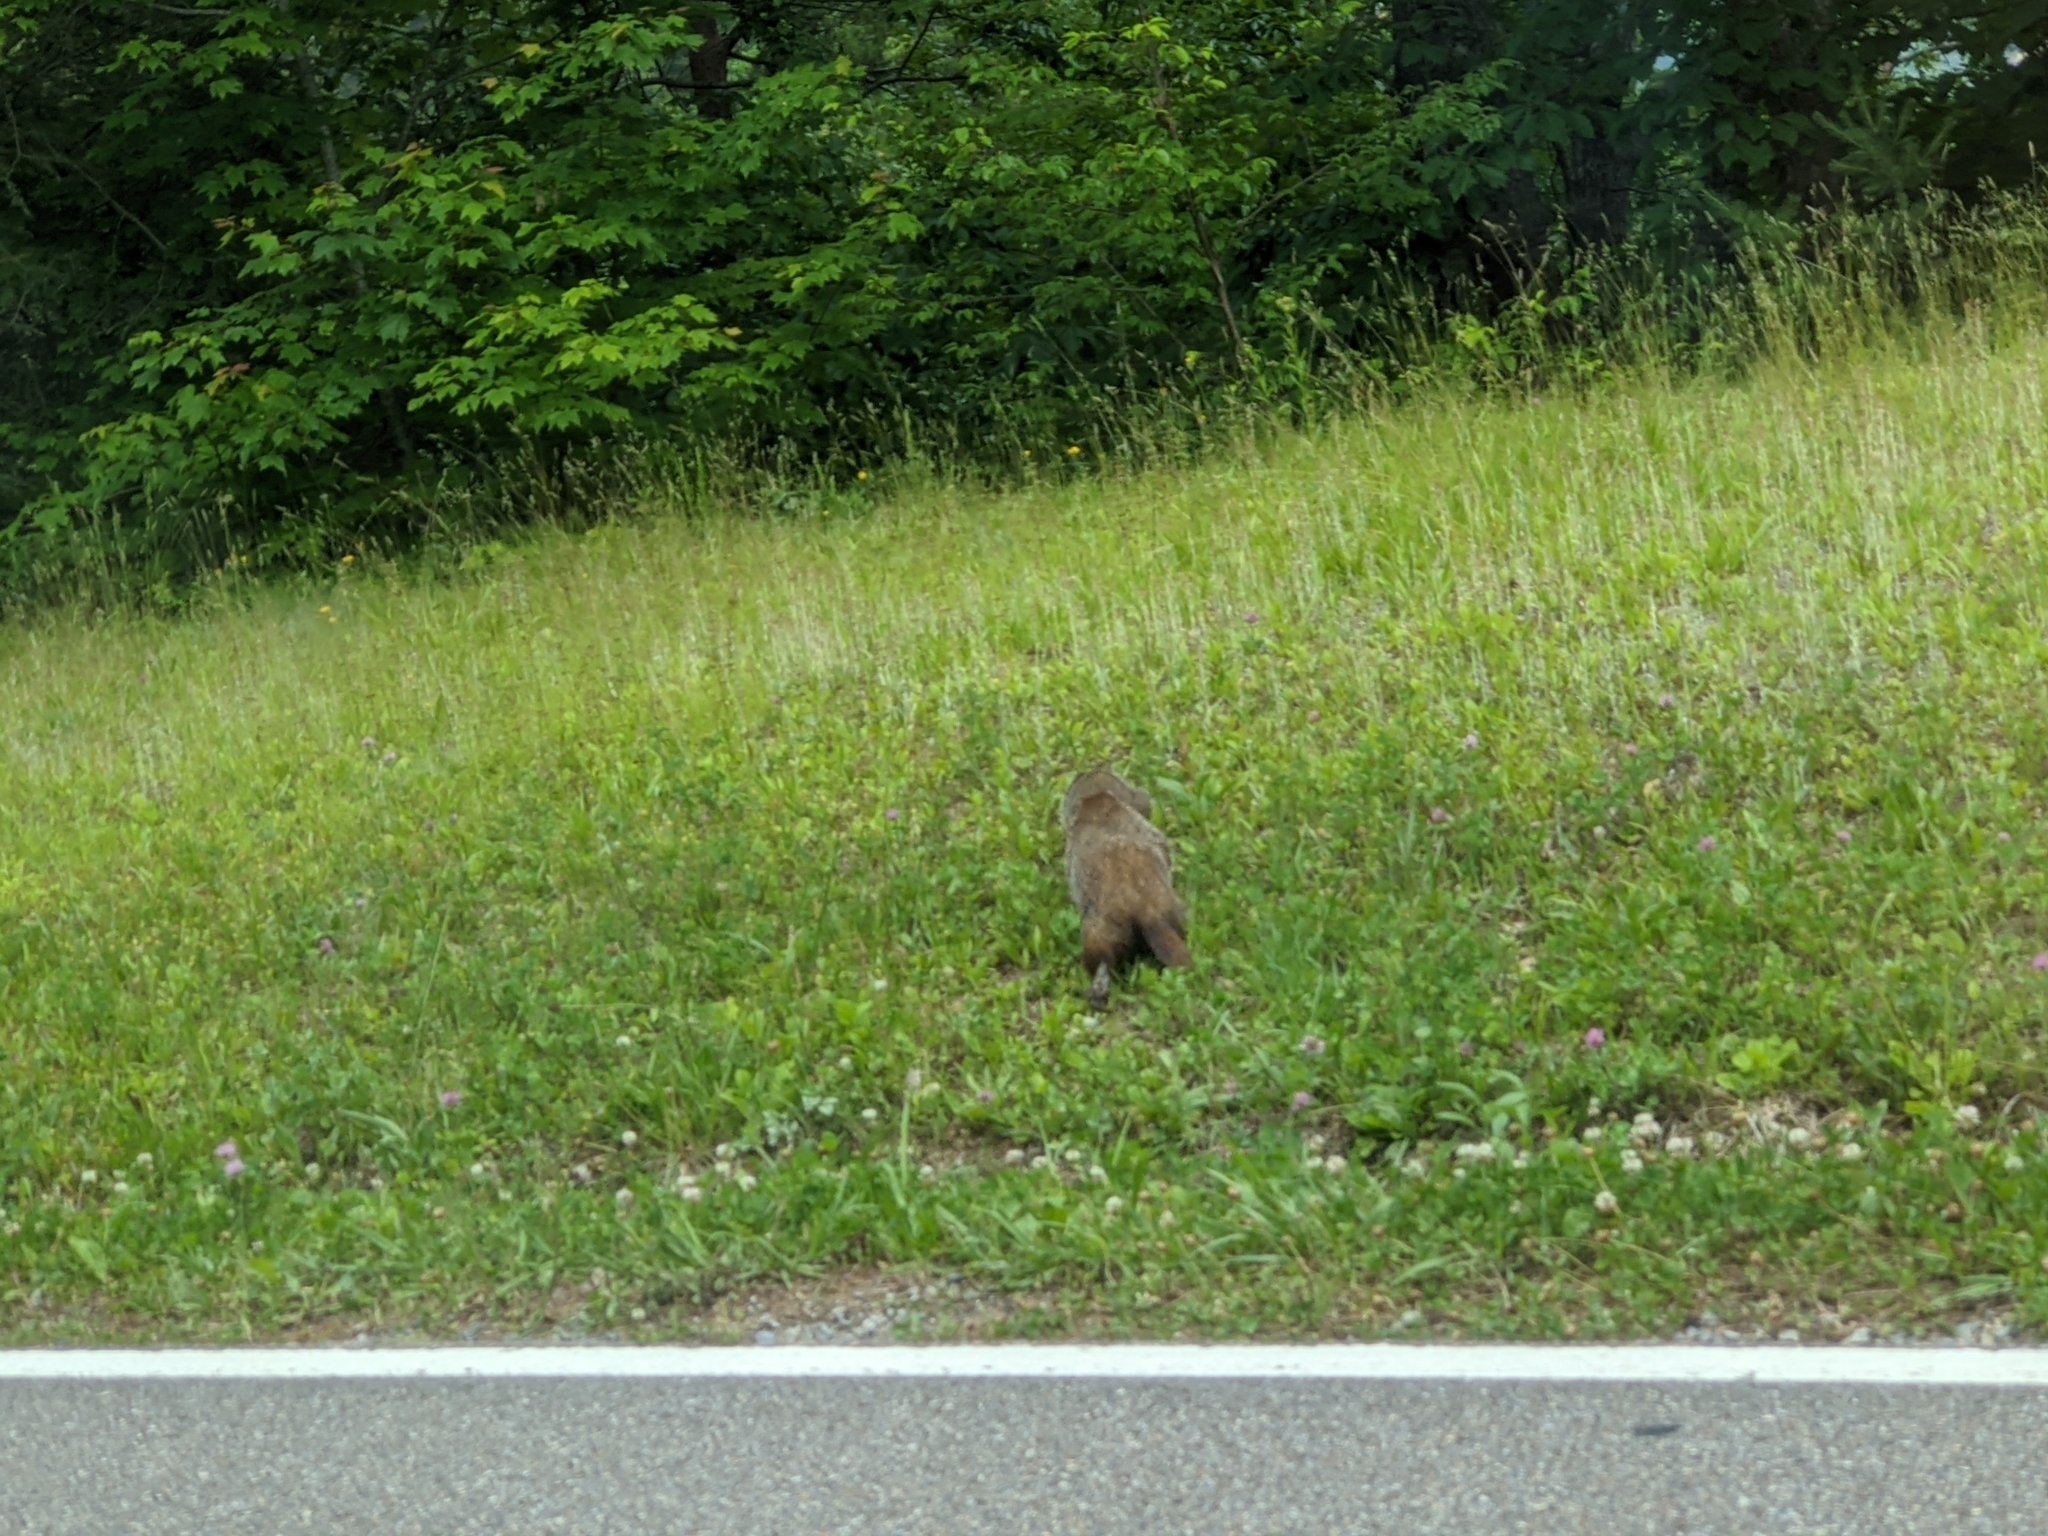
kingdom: Animalia
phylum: Chordata
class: Mammalia
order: Rodentia
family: Sciuridae
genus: Marmota
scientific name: Marmota monax
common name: Groundhog
